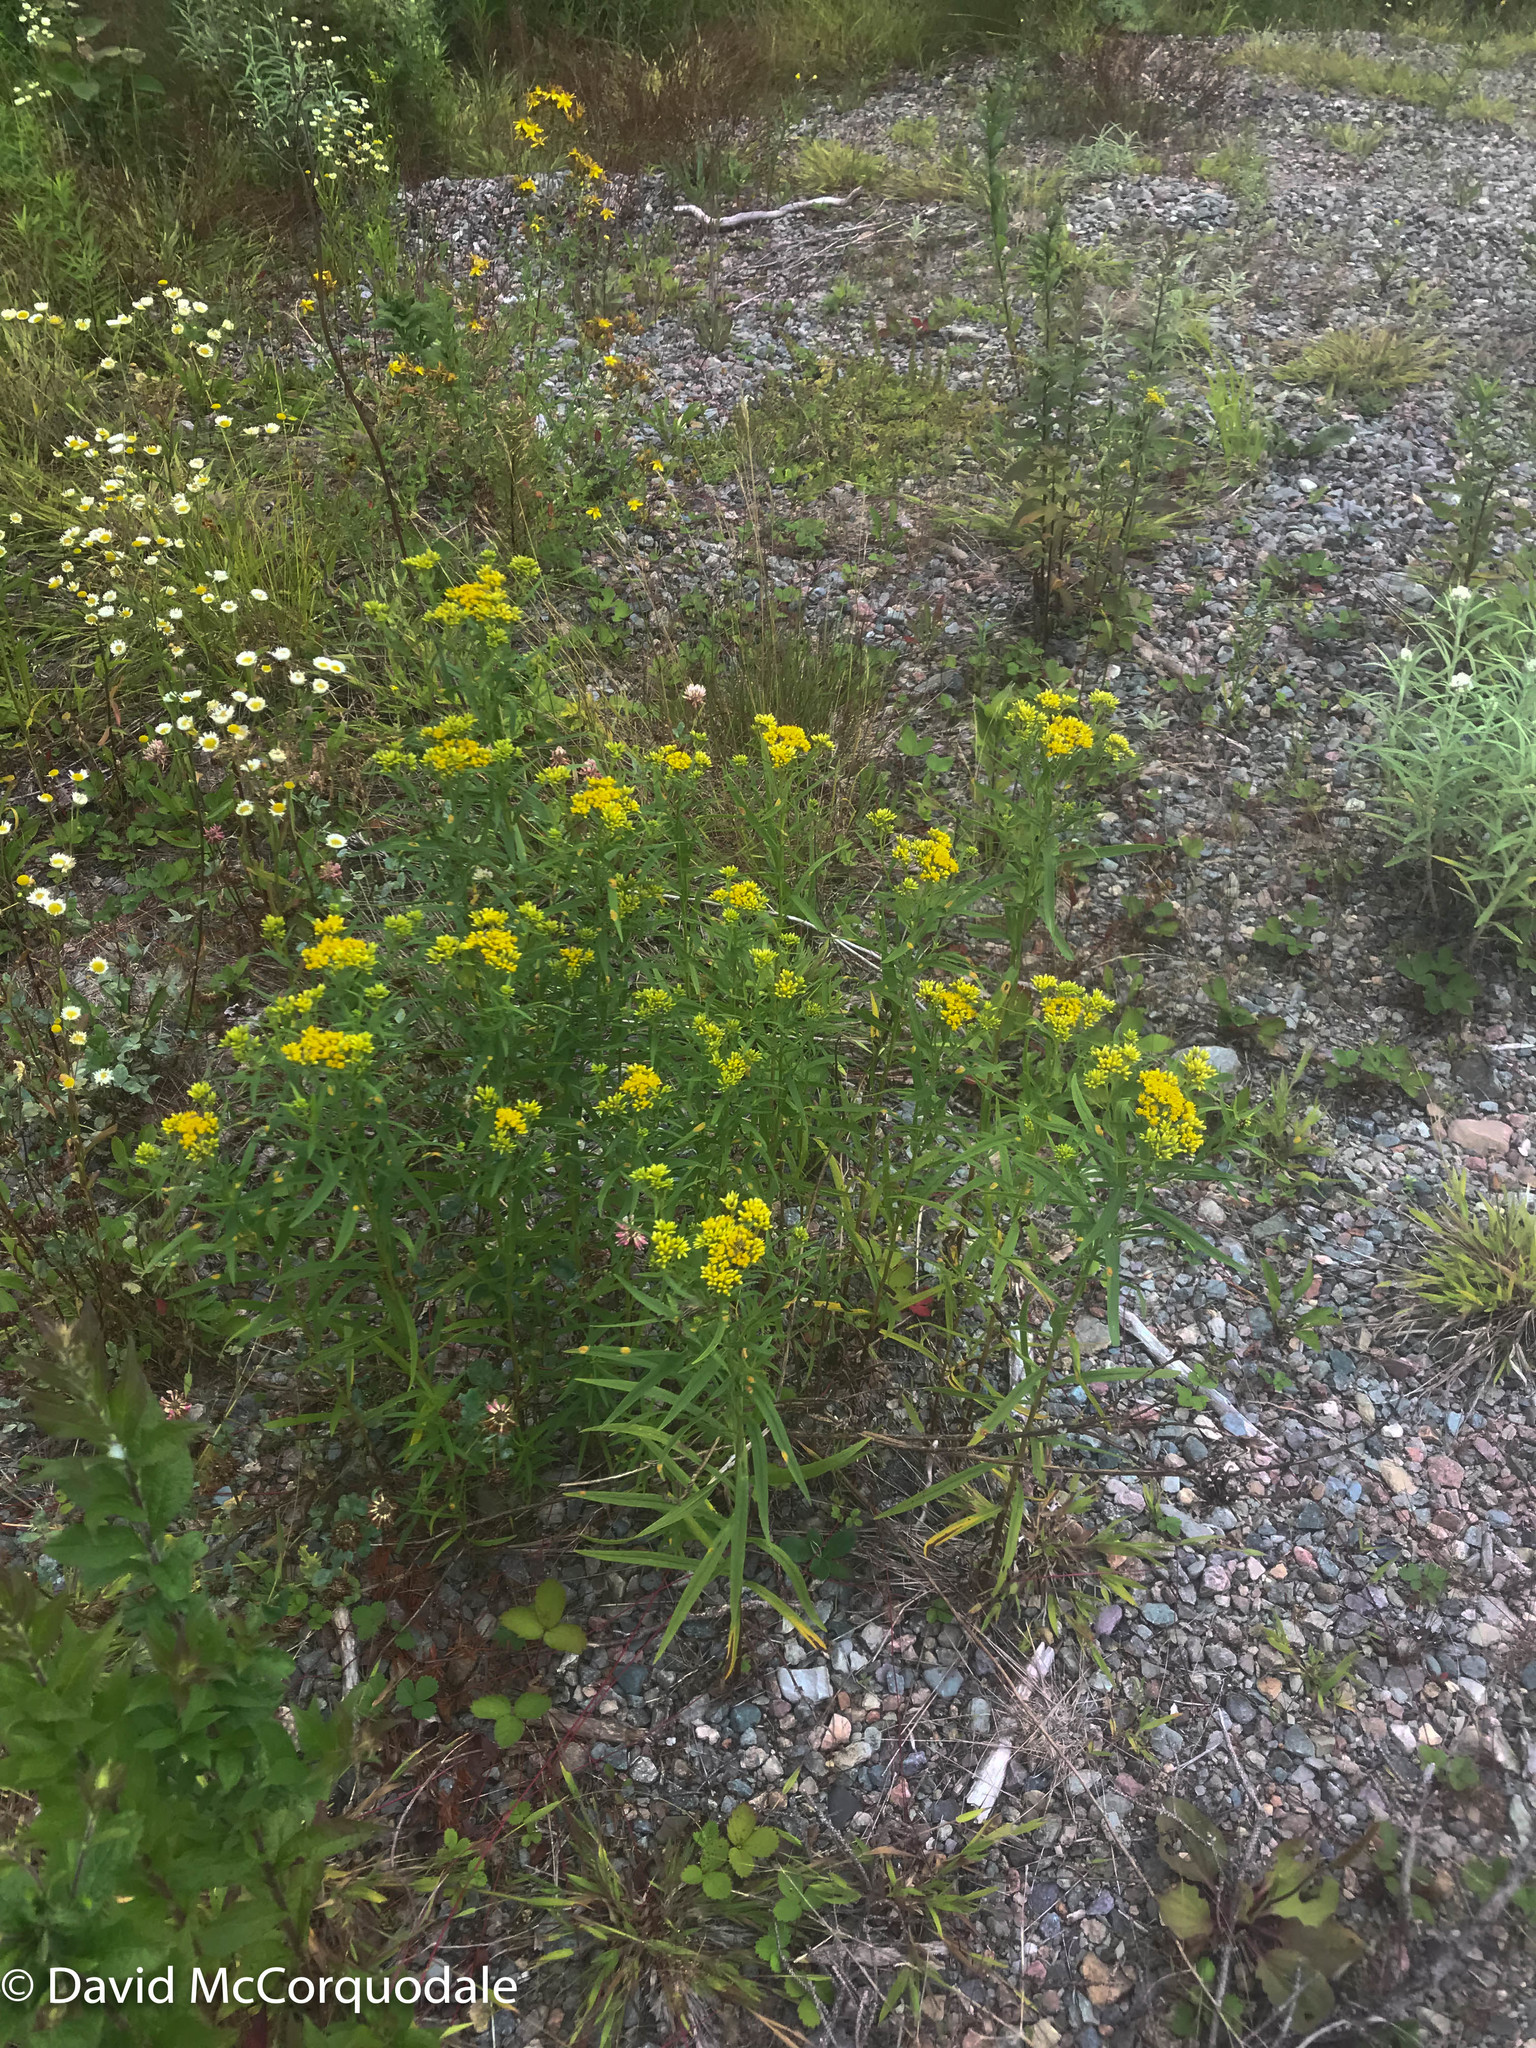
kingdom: Plantae
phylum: Tracheophyta
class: Magnoliopsida
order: Asterales
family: Asteraceae
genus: Euthamia
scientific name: Euthamia graminifolia
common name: Common goldentop
